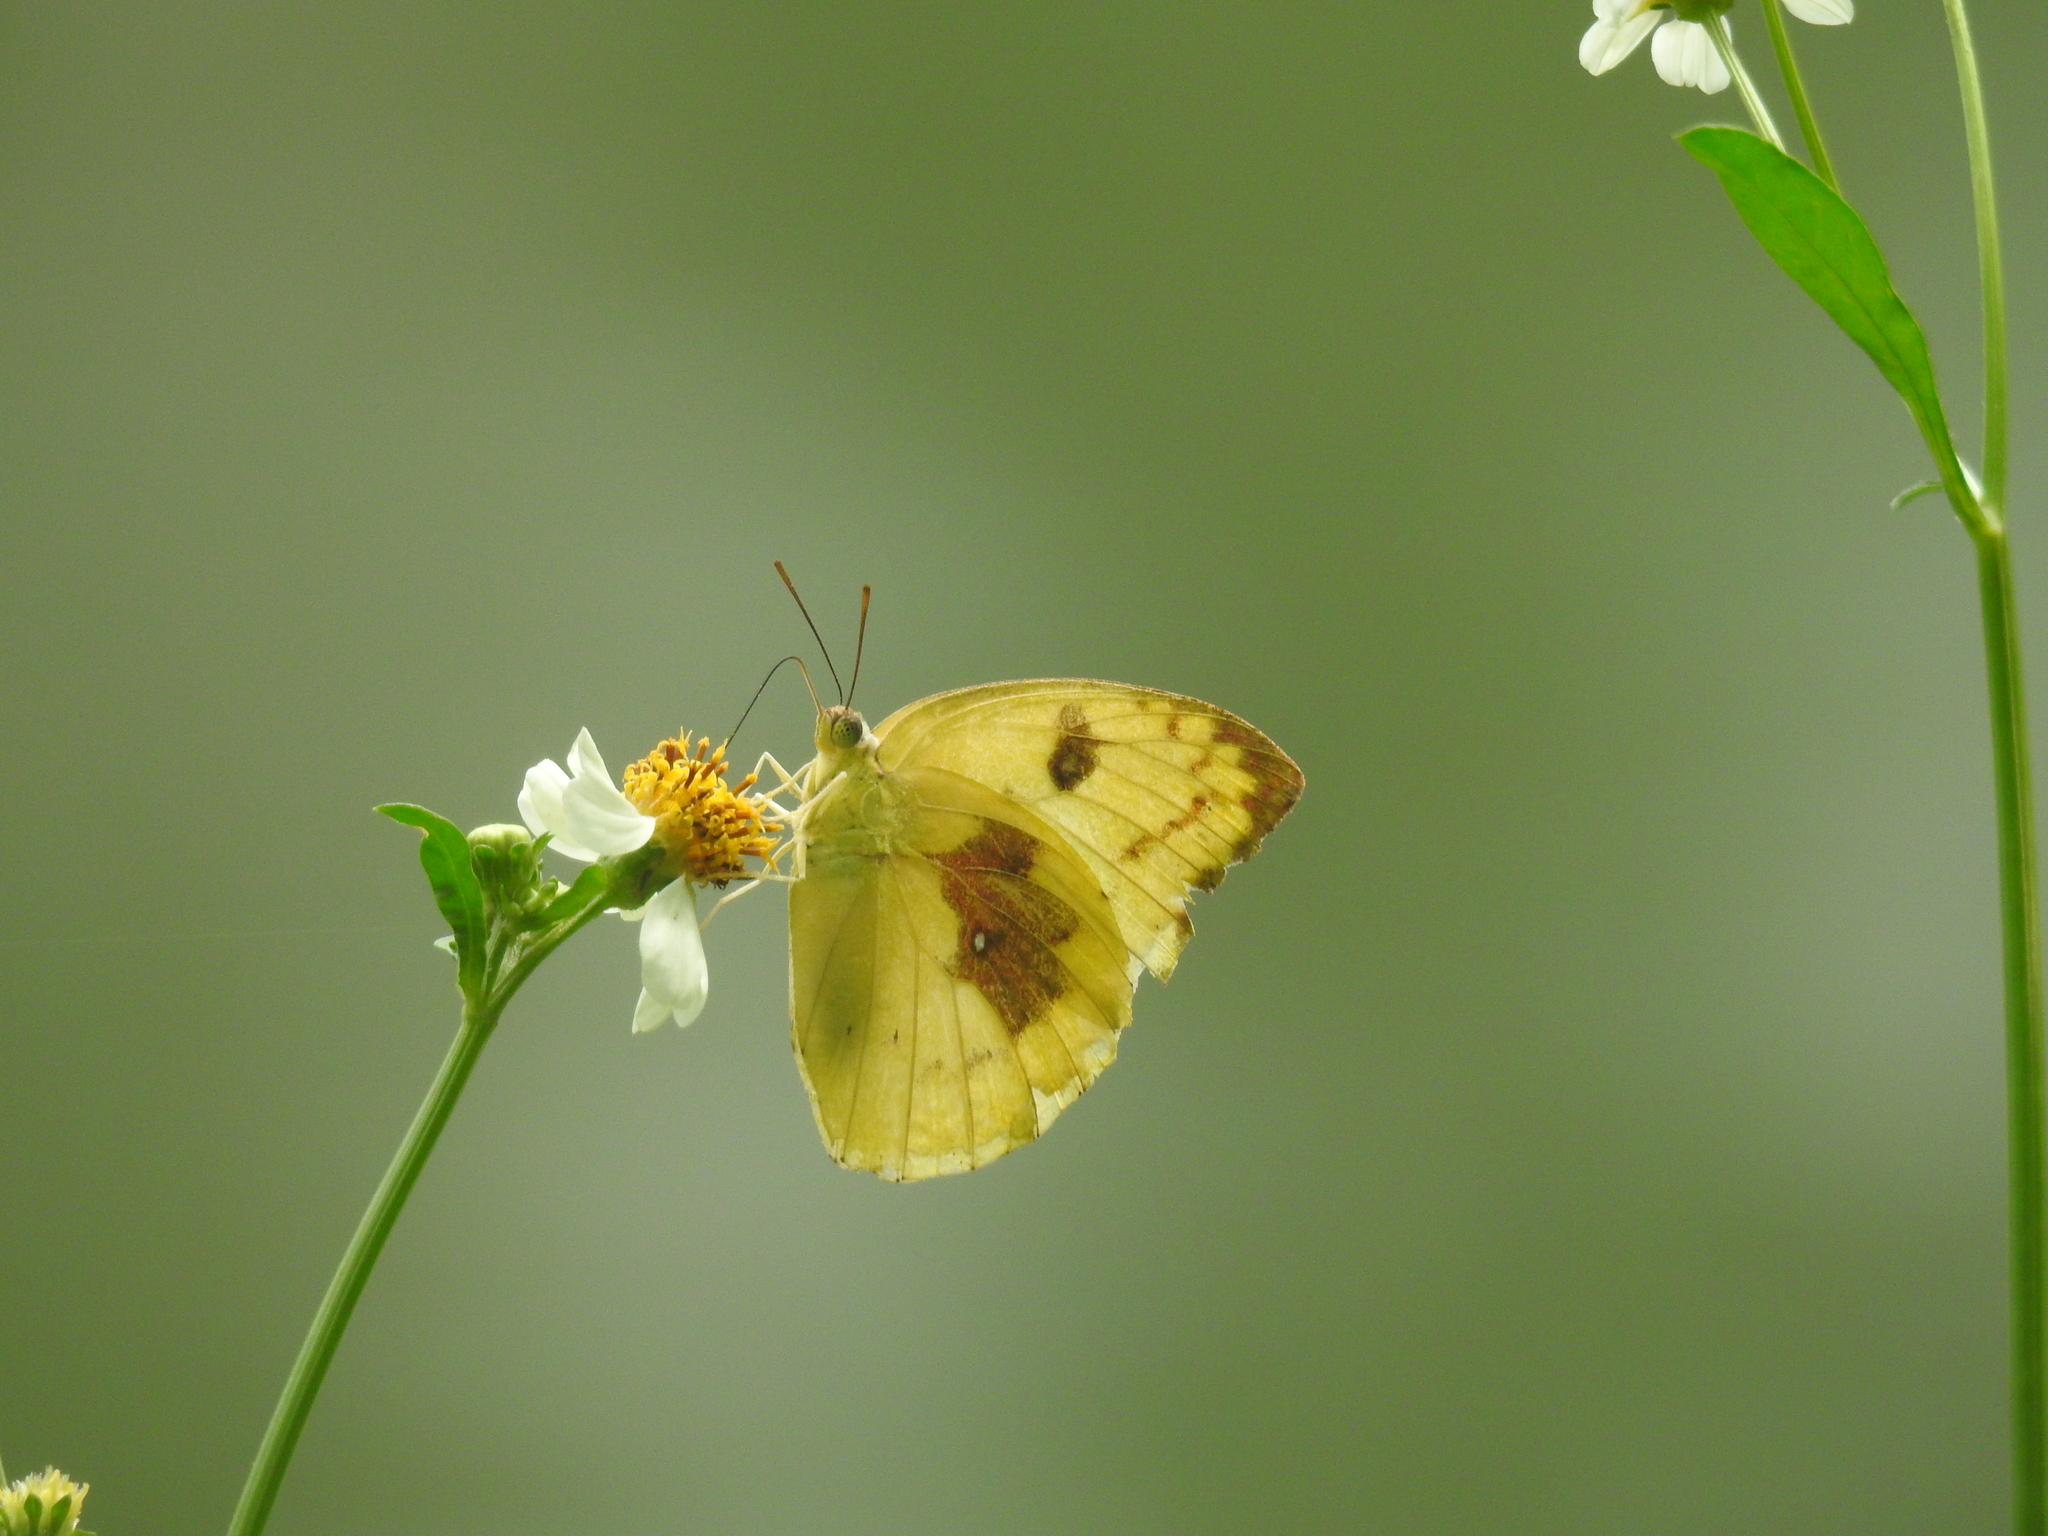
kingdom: Animalia
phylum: Arthropoda
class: Insecta
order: Lepidoptera
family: Pieridae
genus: Catopsilia
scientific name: Catopsilia pomona
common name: Common emigrant
